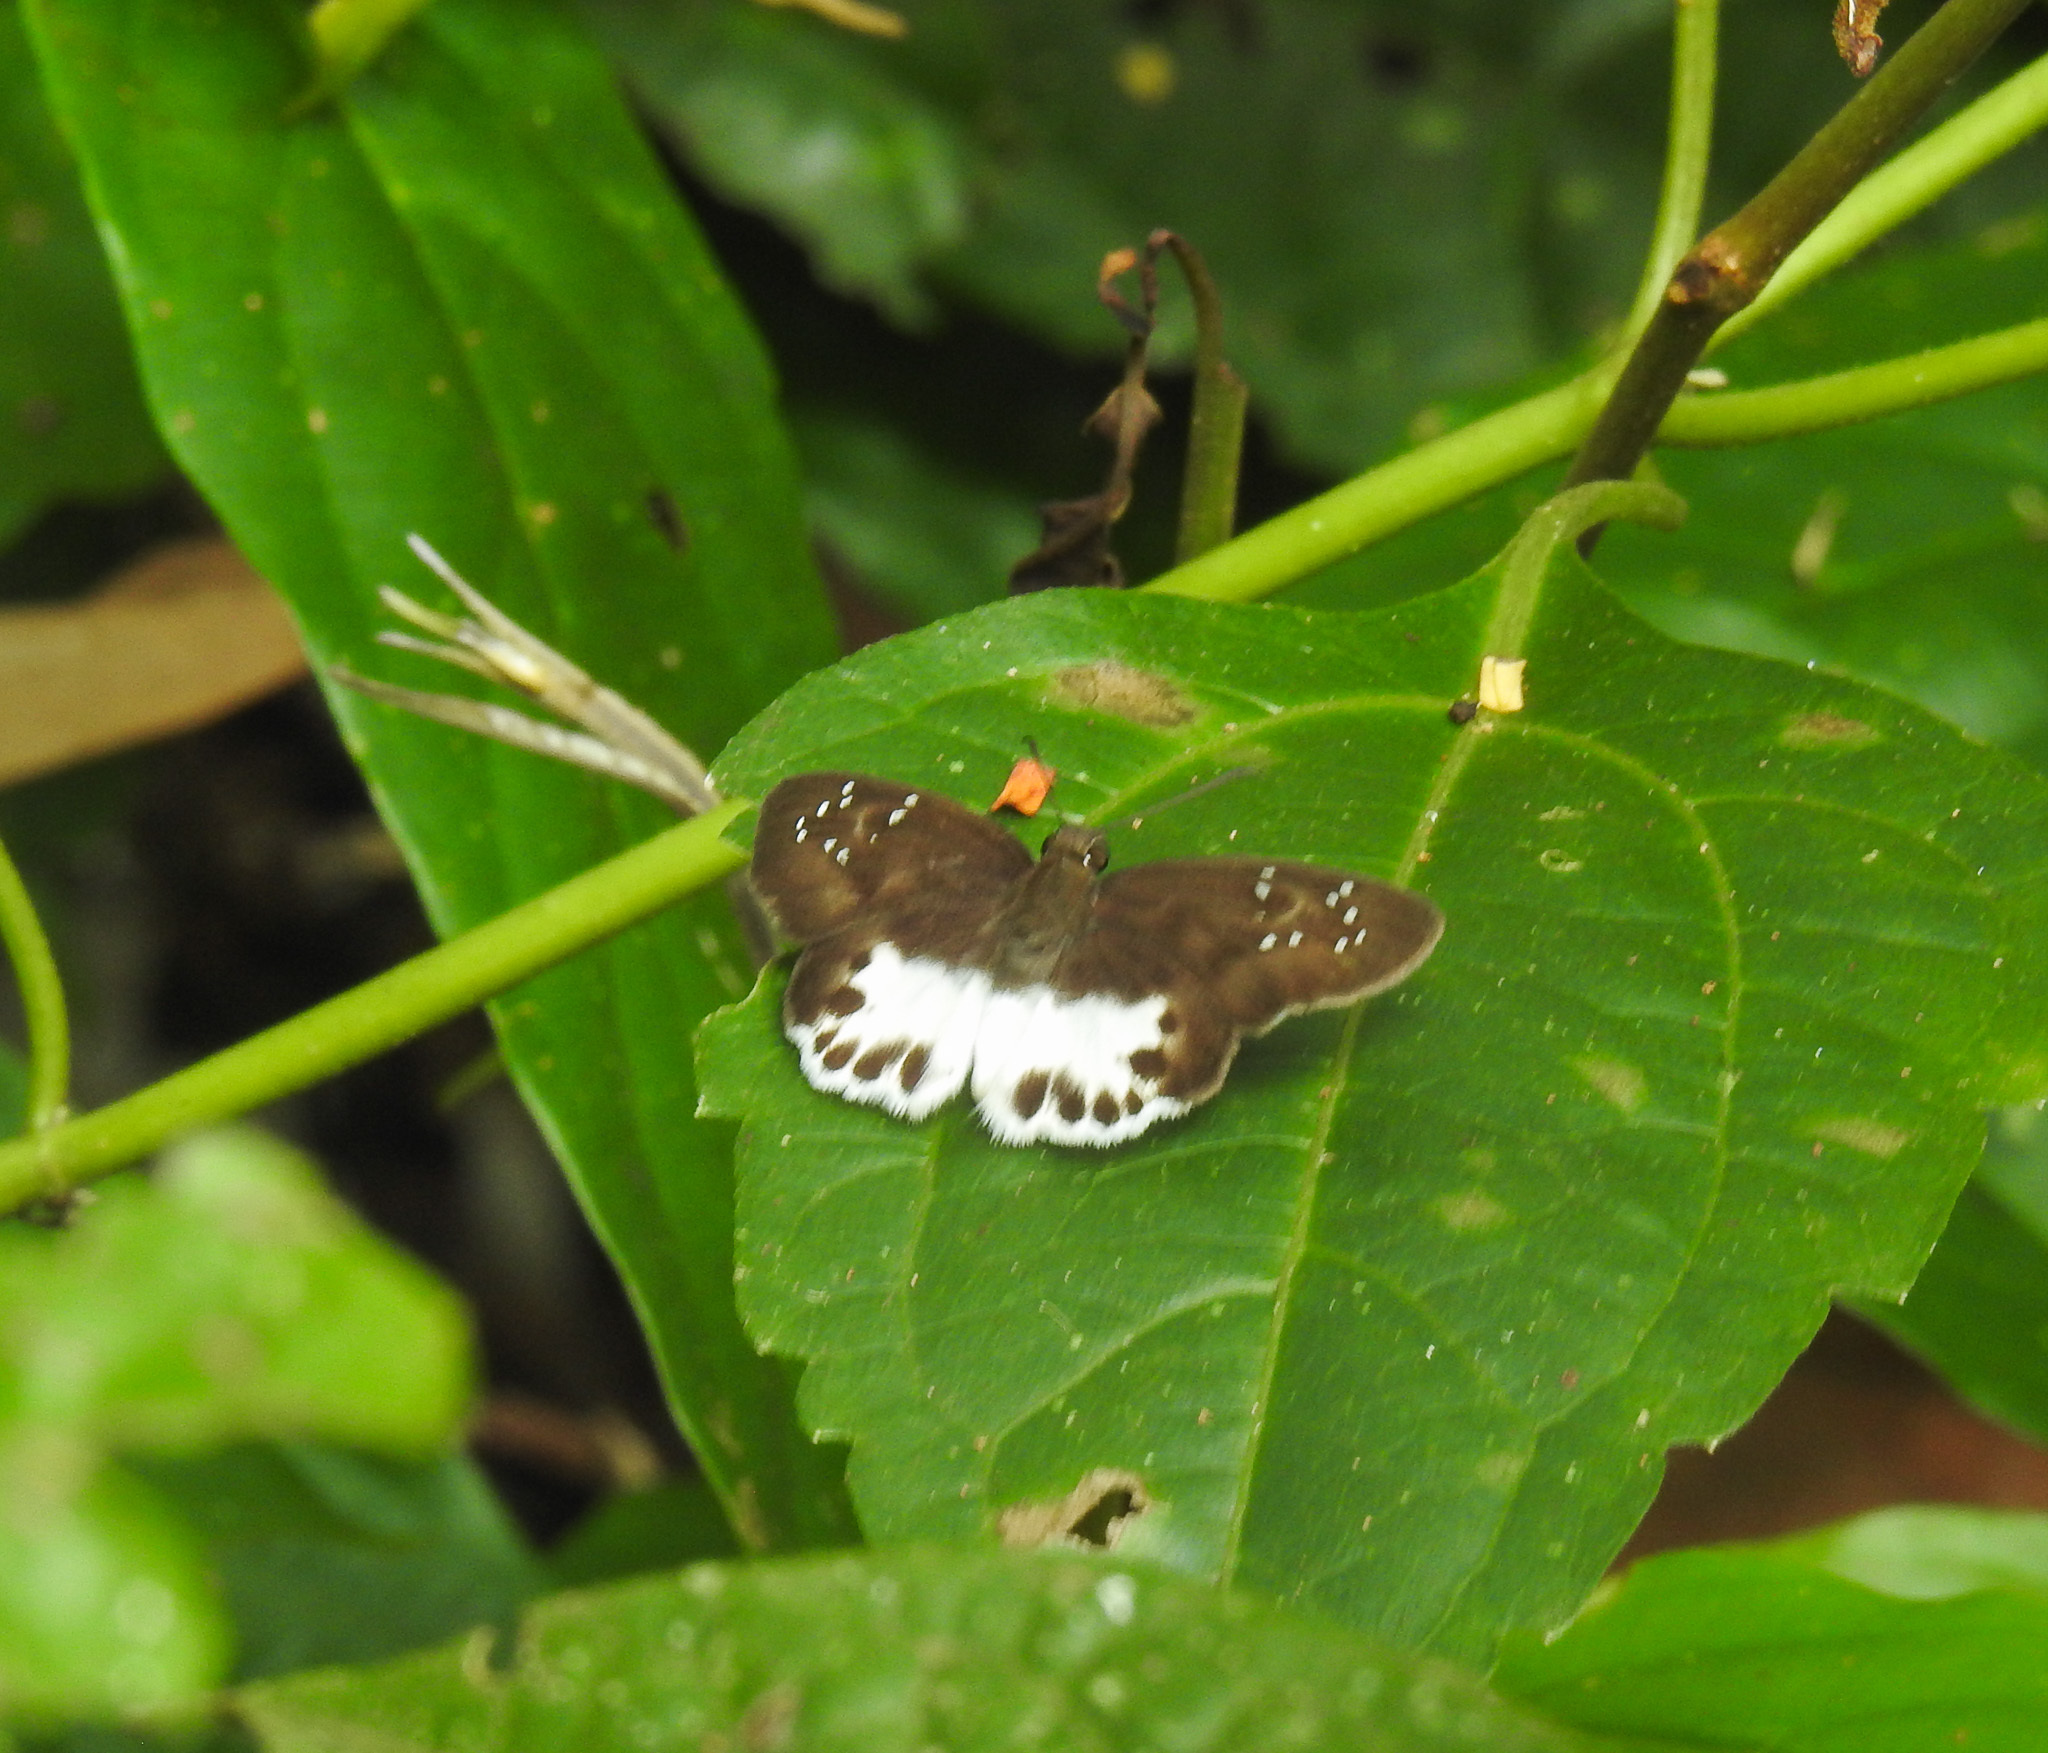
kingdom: Animalia
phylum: Arthropoda
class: Insecta
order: Lepidoptera
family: Hesperiidae
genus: Tagiades
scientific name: Tagiades litigiosa
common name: Water snow flat
